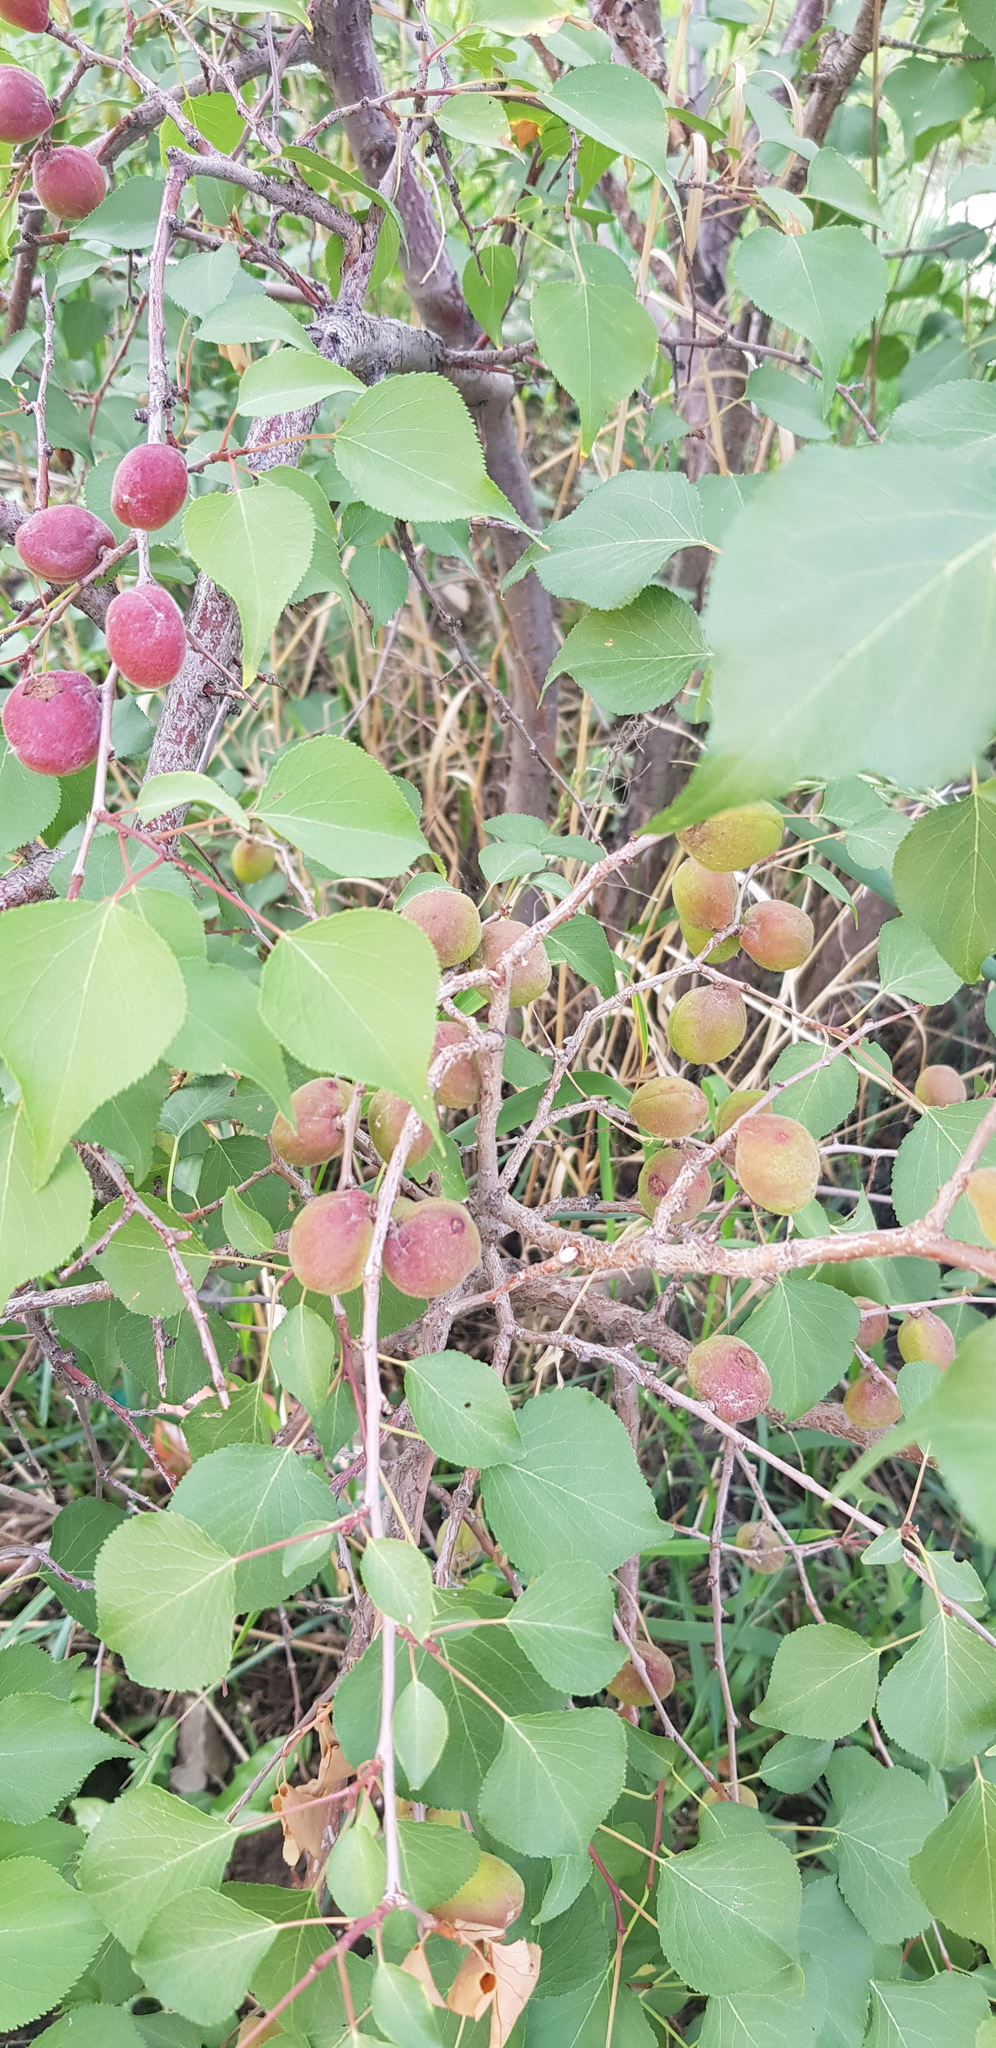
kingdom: Plantae
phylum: Tracheophyta
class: Magnoliopsida
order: Rosales
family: Rosaceae
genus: Prunus
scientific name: Prunus armeniaca
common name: Apricot
